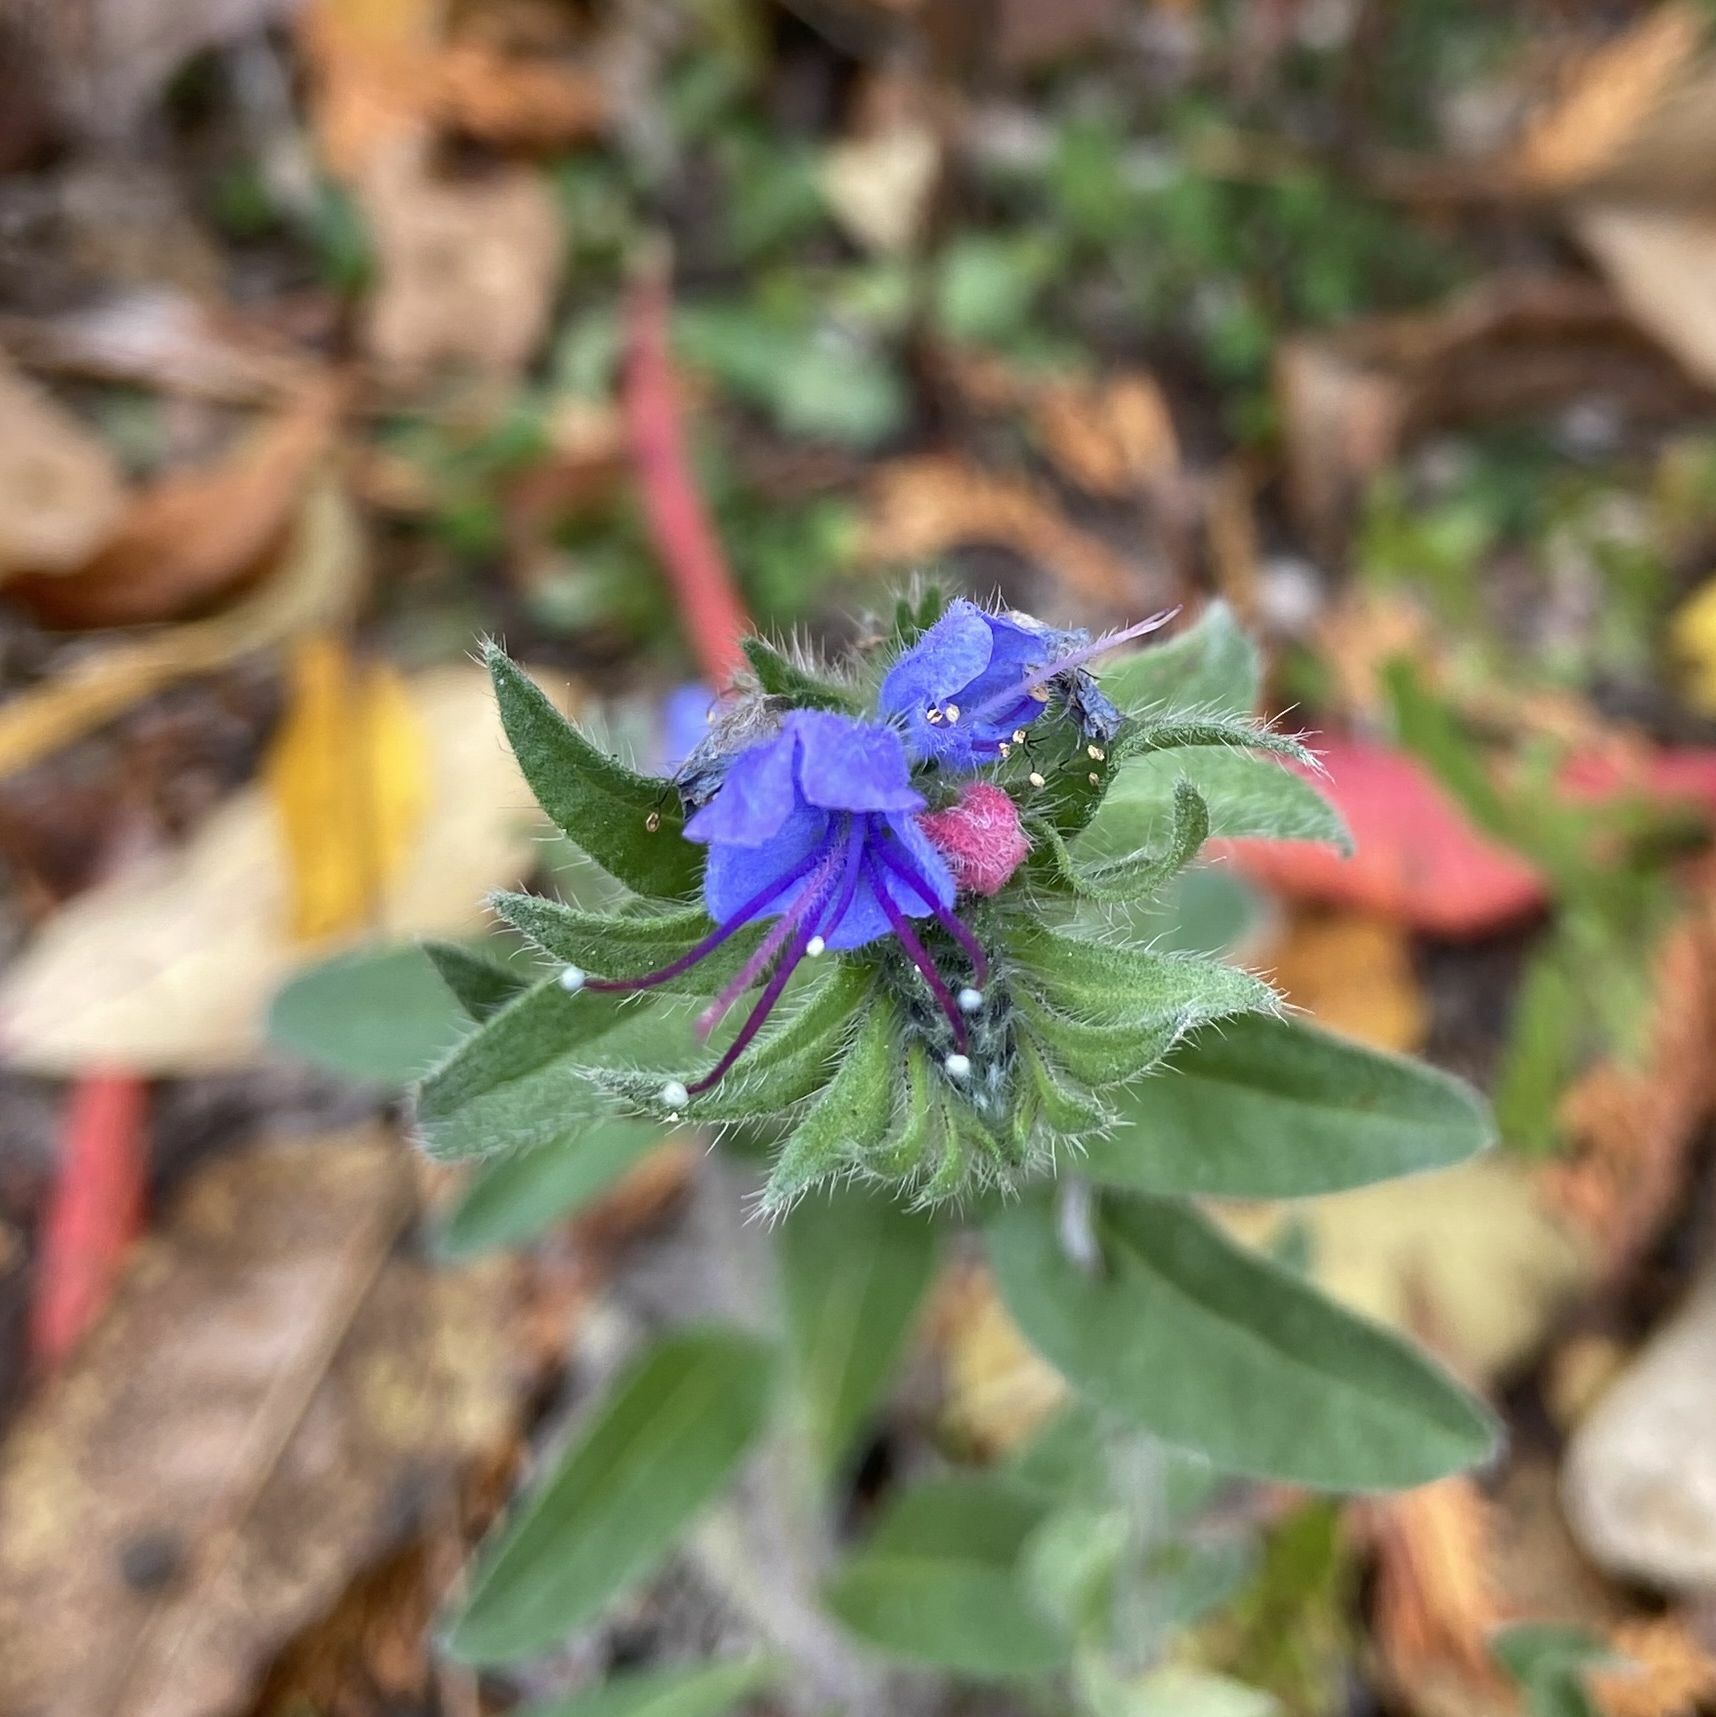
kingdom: Plantae
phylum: Tracheophyta
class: Magnoliopsida
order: Boraginales
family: Boraginaceae
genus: Echium
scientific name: Echium vulgare
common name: Common viper's bugloss
